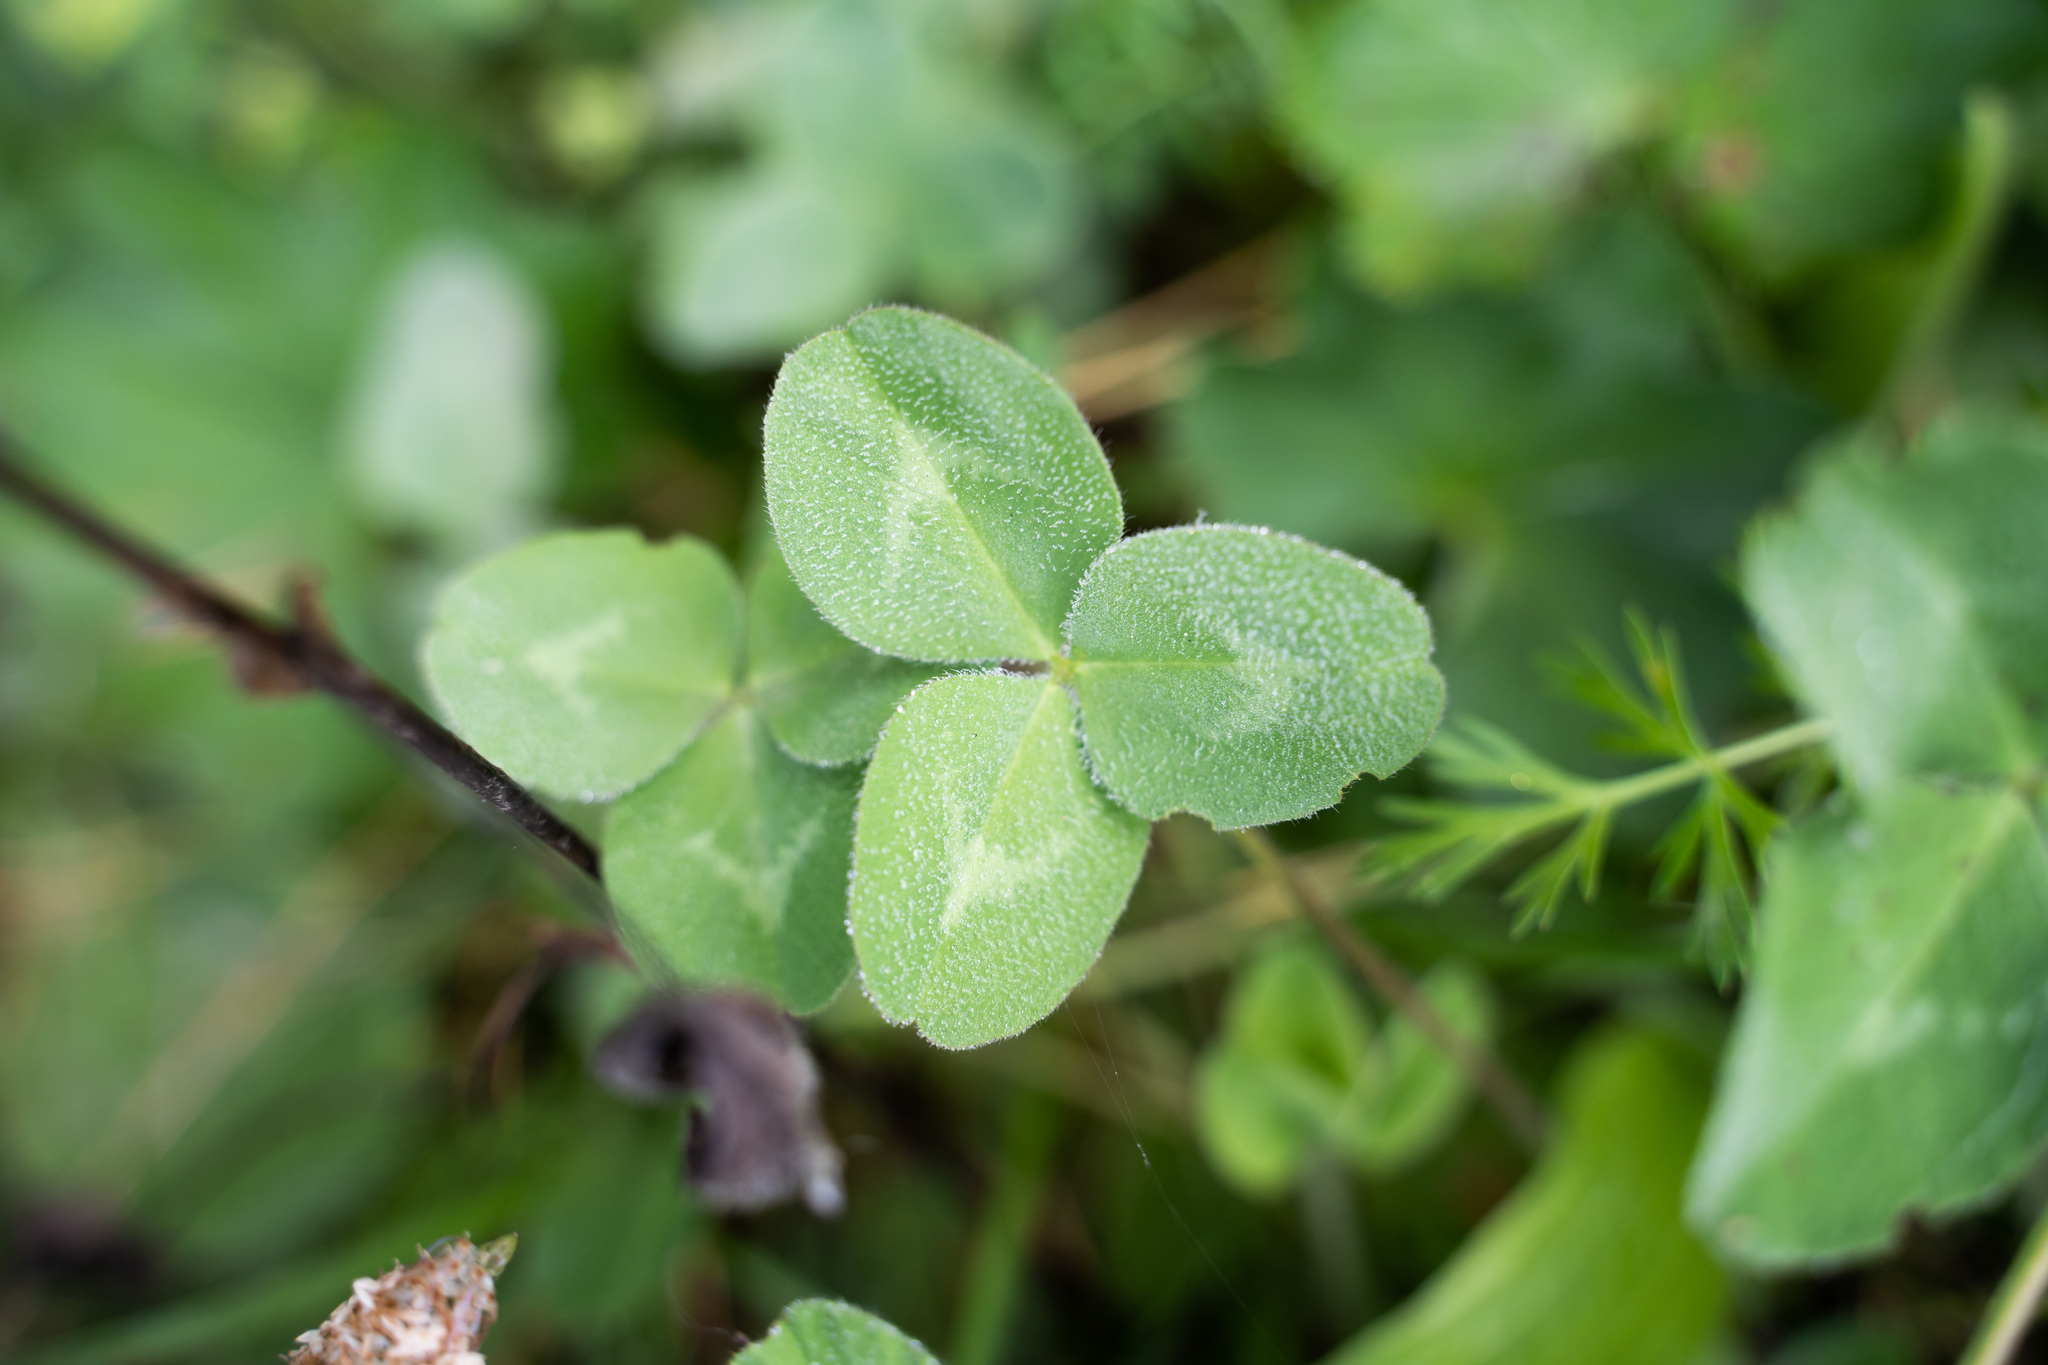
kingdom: Plantae
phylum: Tracheophyta
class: Magnoliopsida
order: Fabales
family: Fabaceae
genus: Trifolium
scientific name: Trifolium pratense
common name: Red clover
